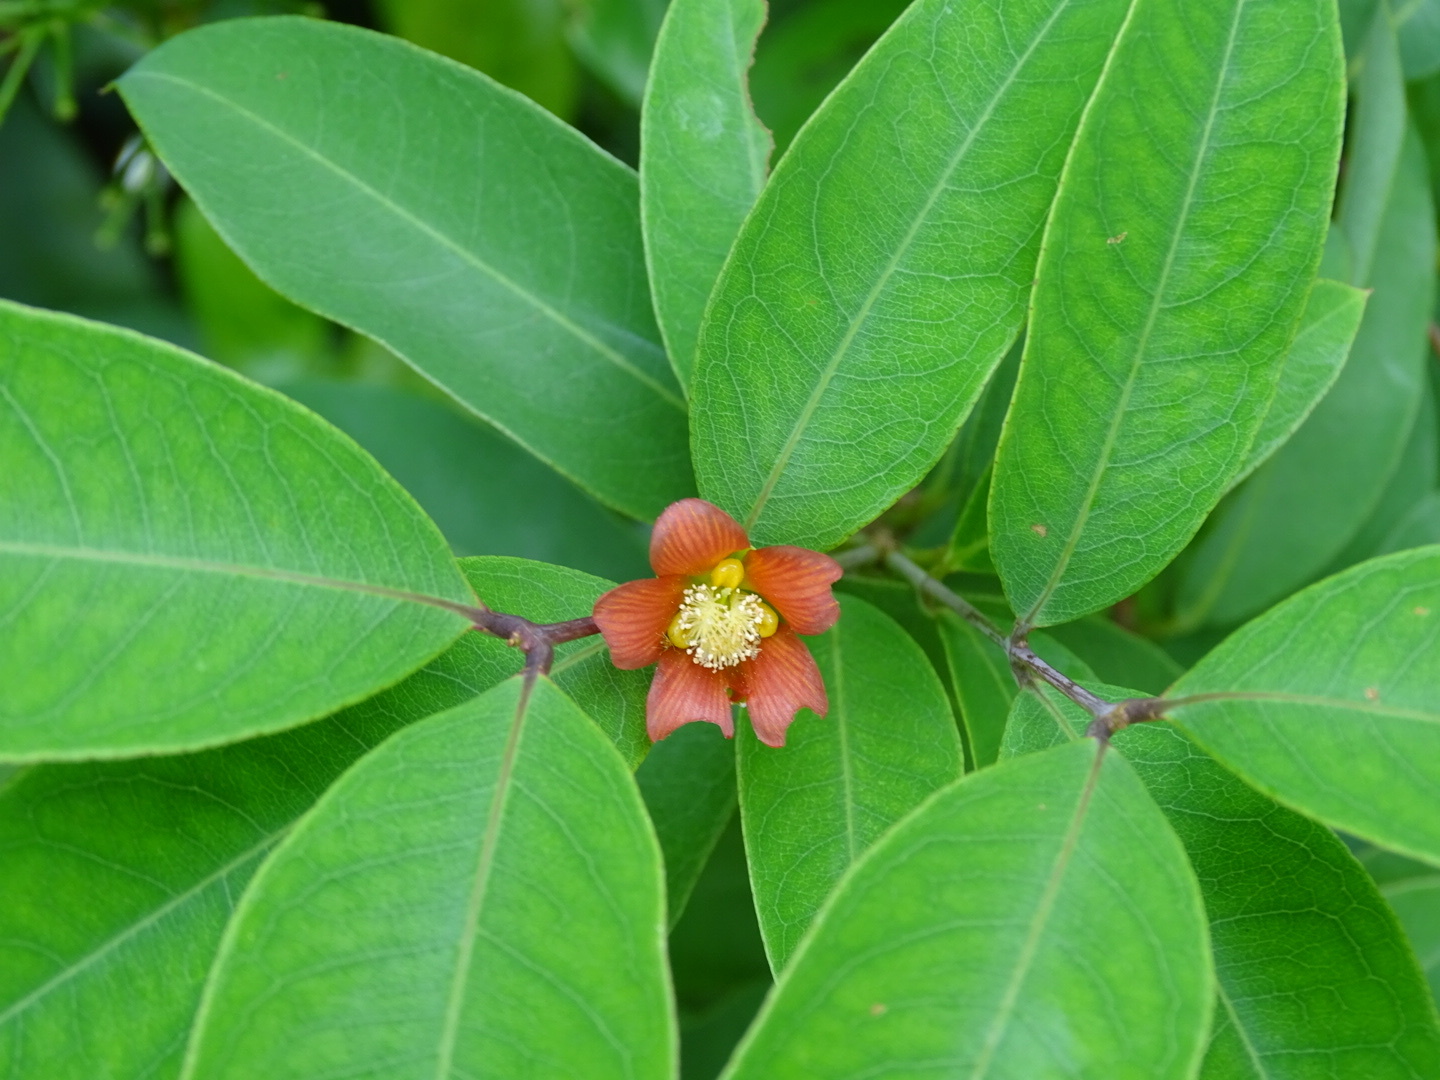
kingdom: Plantae
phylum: Tracheophyta
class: Magnoliopsida
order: Malpighiales
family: Hypericaceae
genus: Cratoxylum
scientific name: Cratoxylum cochinchinense
